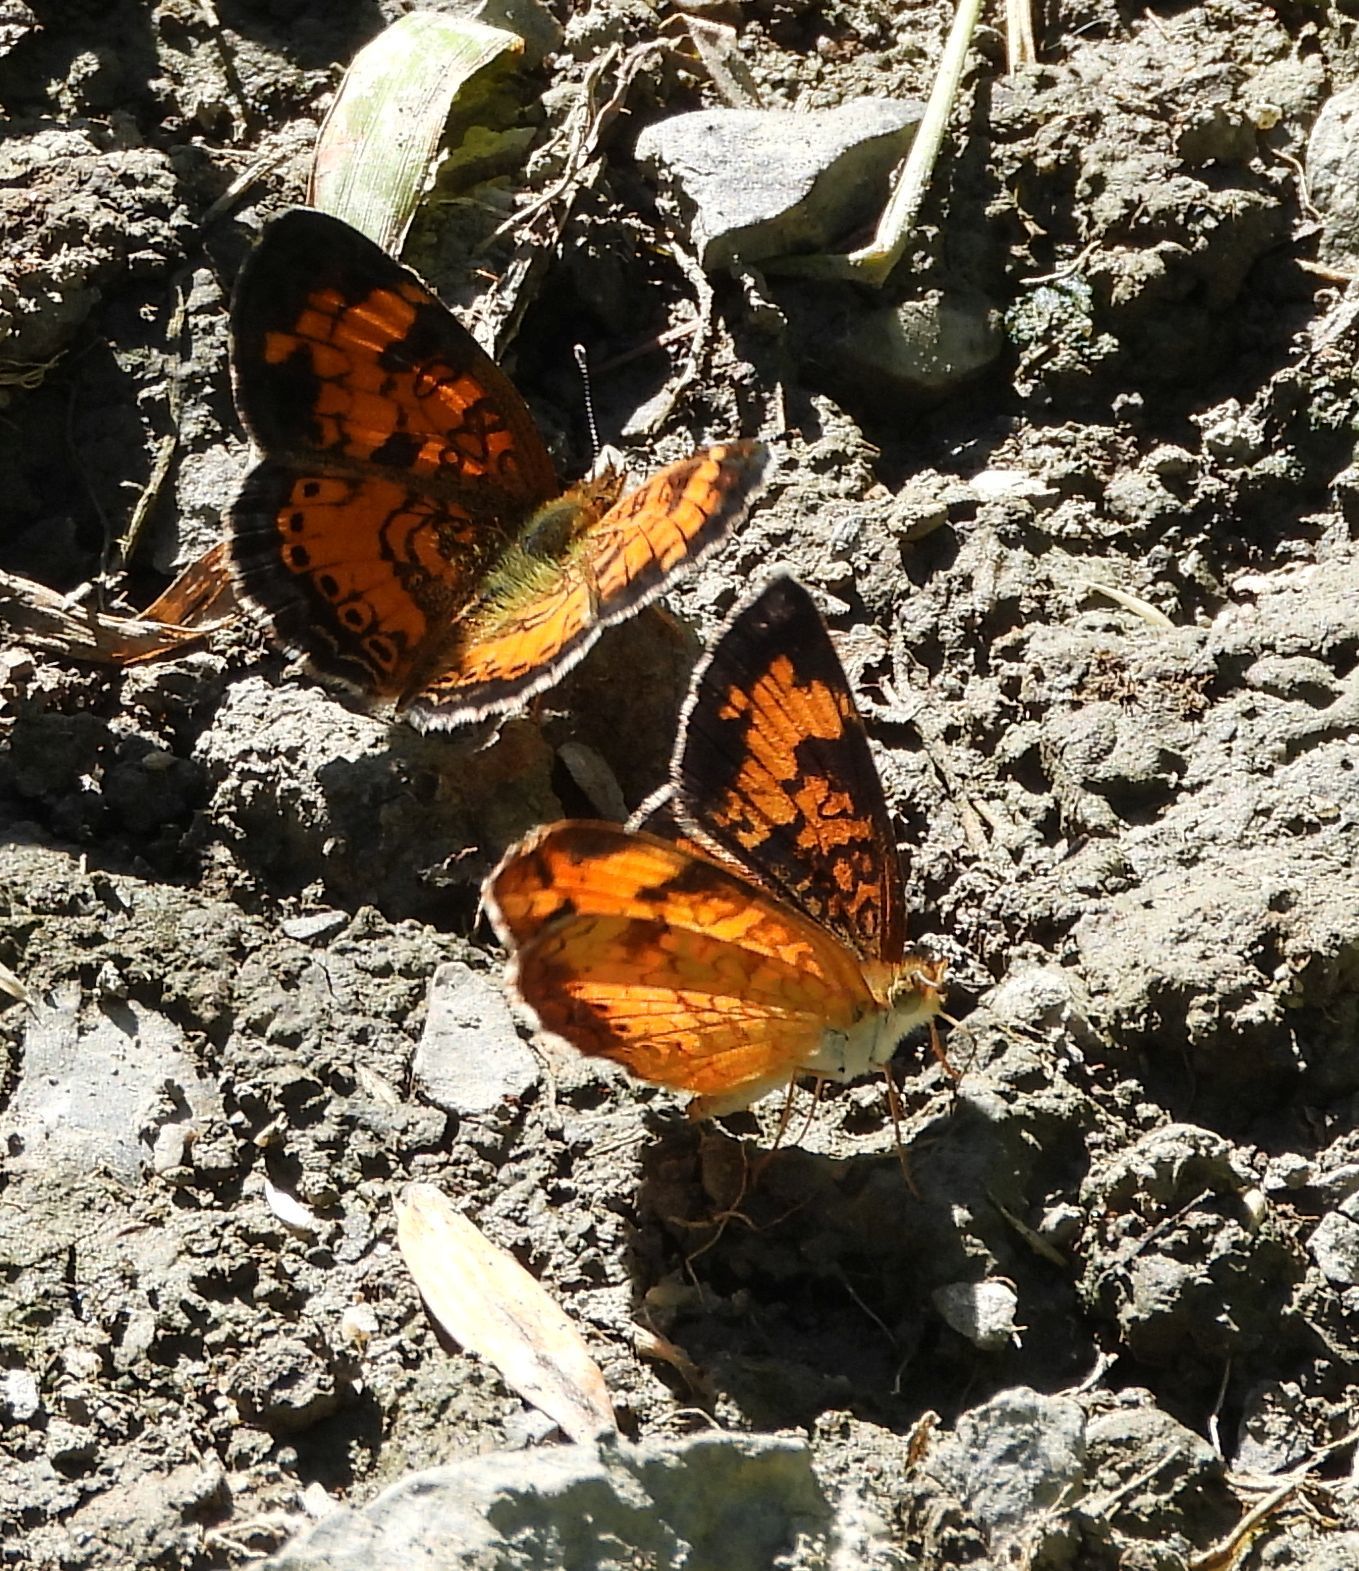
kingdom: Animalia
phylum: Arthropoda
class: Insecta
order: Lepidoptera
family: Nymphalidae
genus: Phyciodes
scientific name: Phyciodes tharos
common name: Pearl crescent
